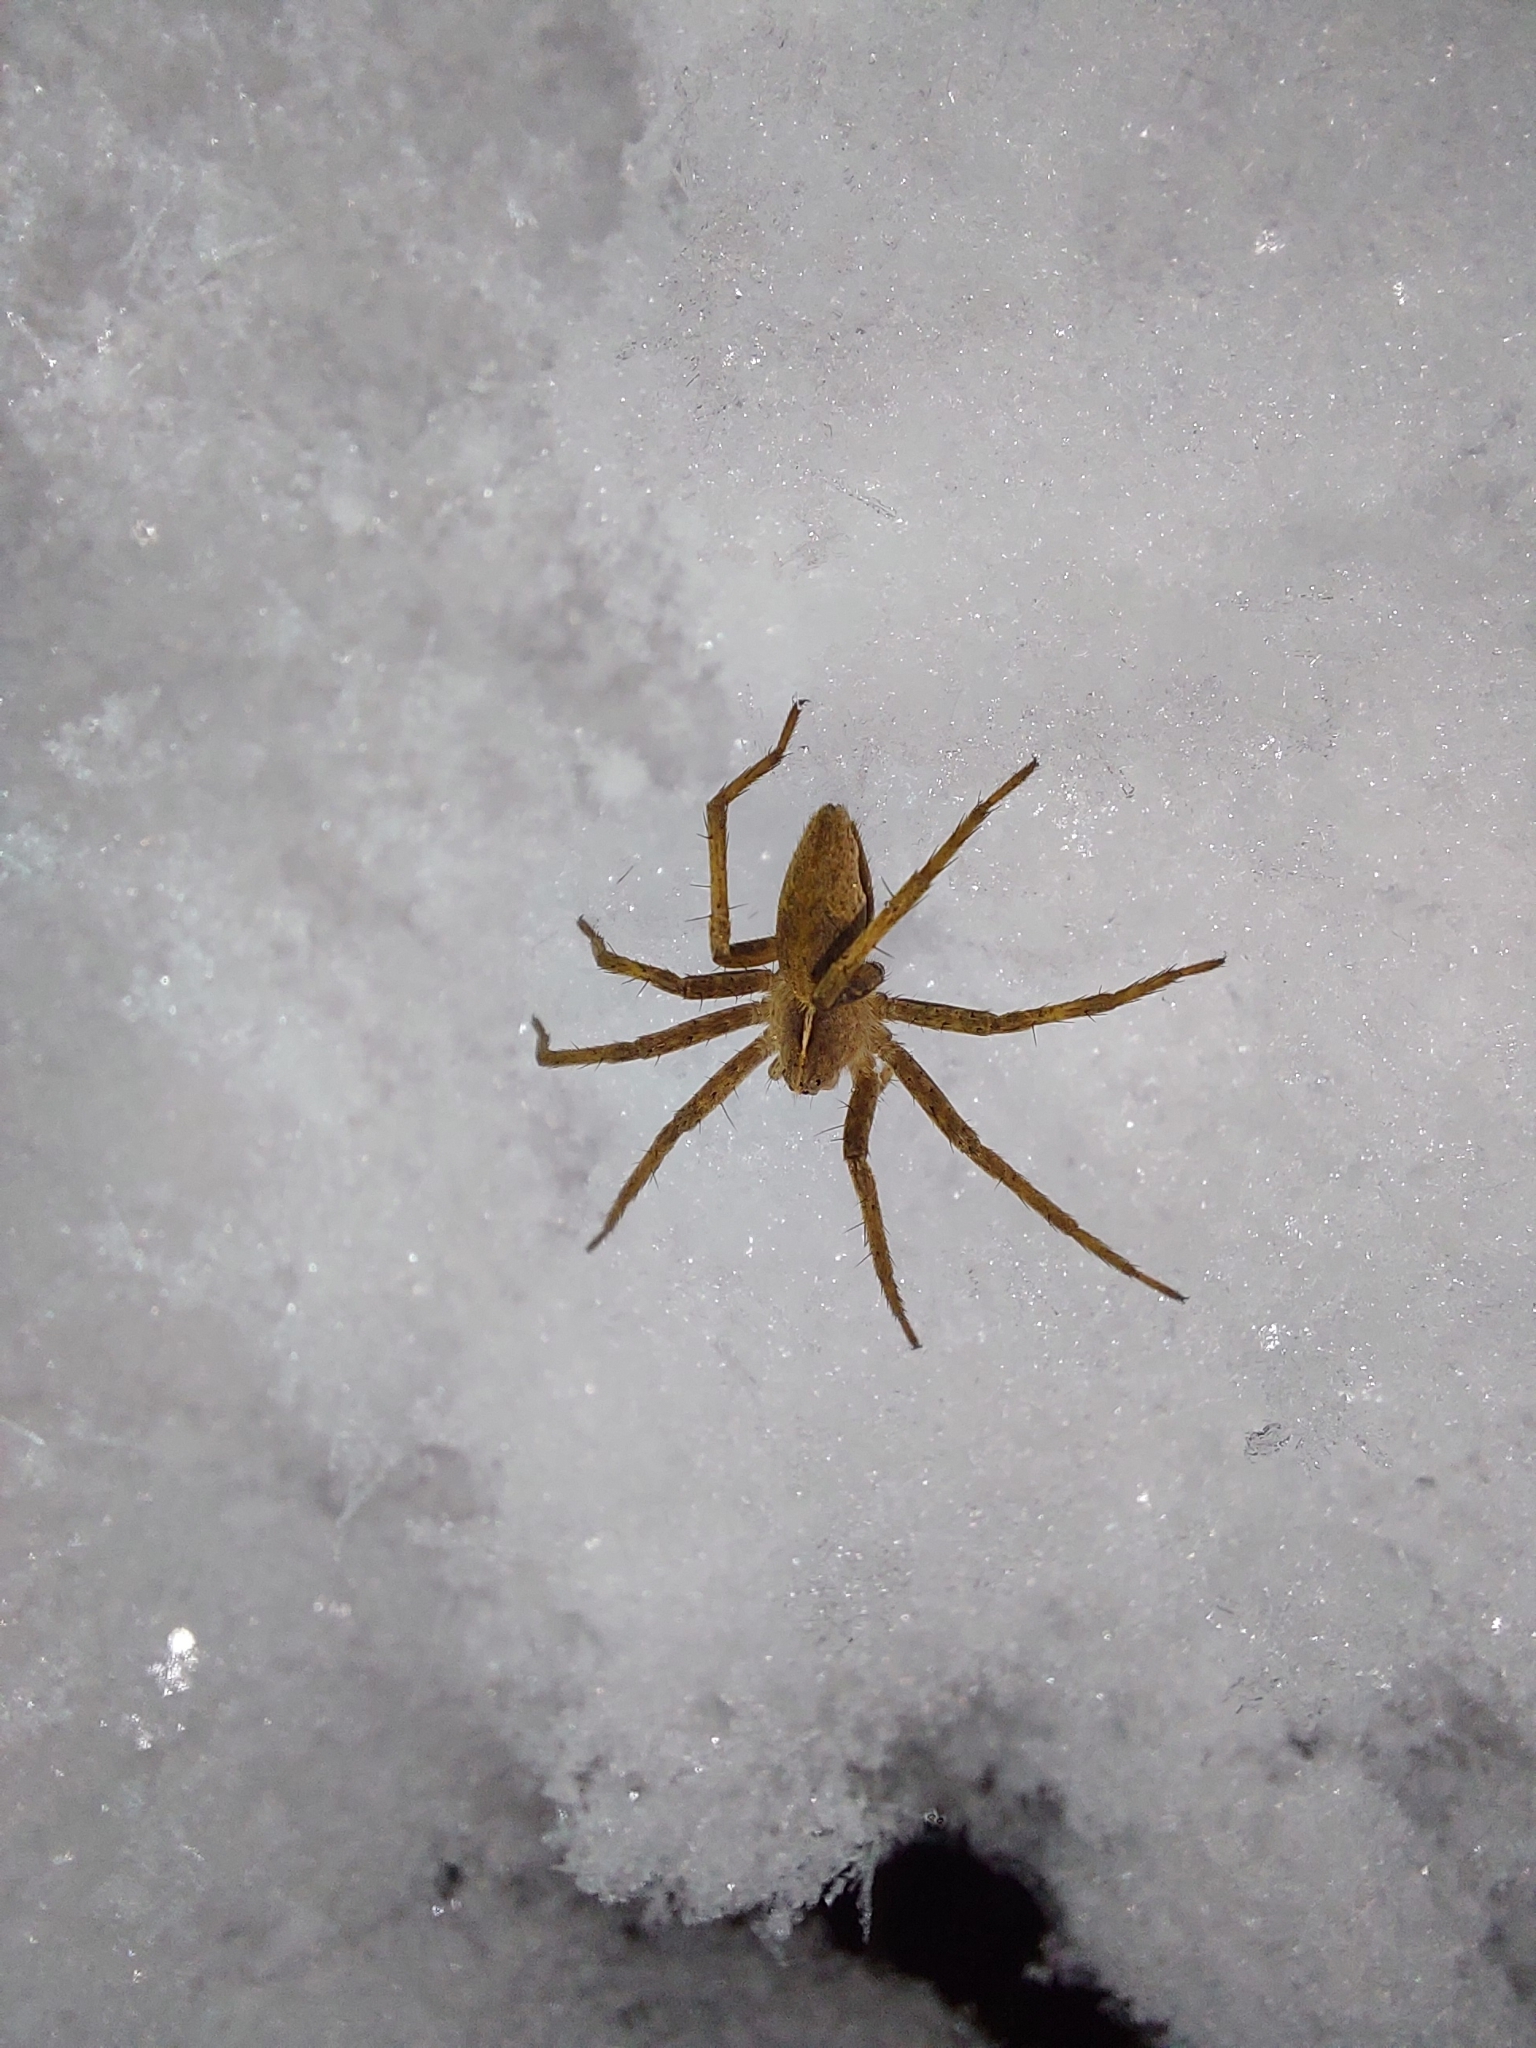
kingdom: Animalia
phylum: Arthropoda
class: Arachnida
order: Araneae
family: Pisauridae
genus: Pisaura
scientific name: Pisaura mirabilis
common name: Tent spider
